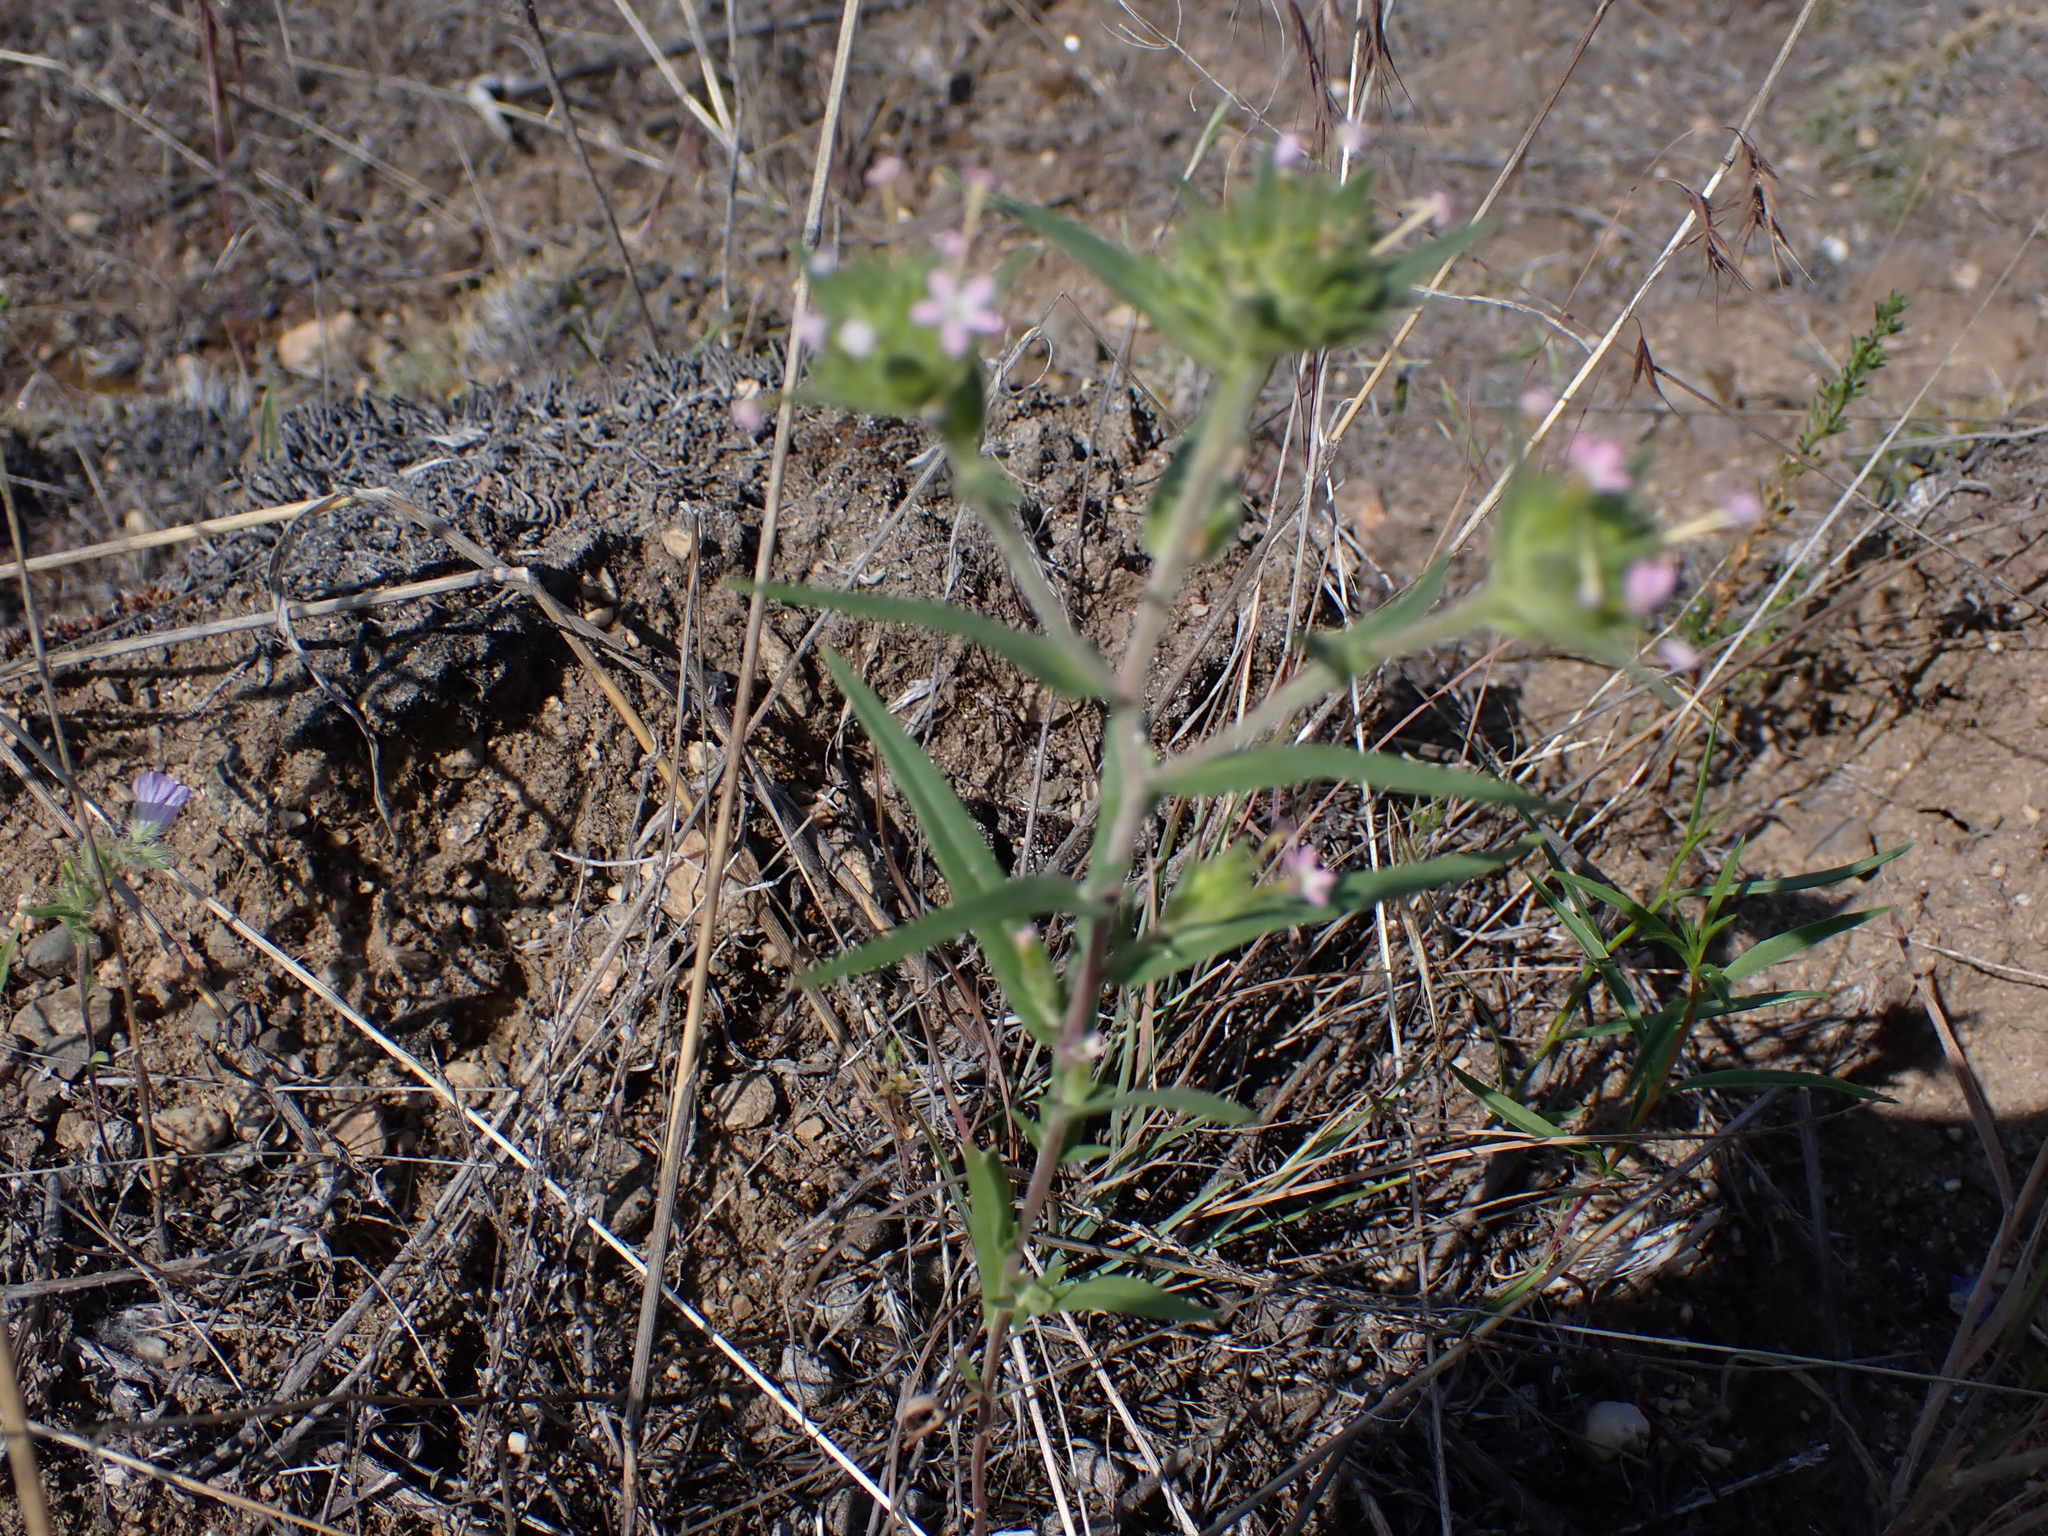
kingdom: Plantae
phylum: Tracheophyta
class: Magnoliopsida
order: Ericales
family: Polemoniaceae
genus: Collomia
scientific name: Collomia linearis
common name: Tiny trumpet
